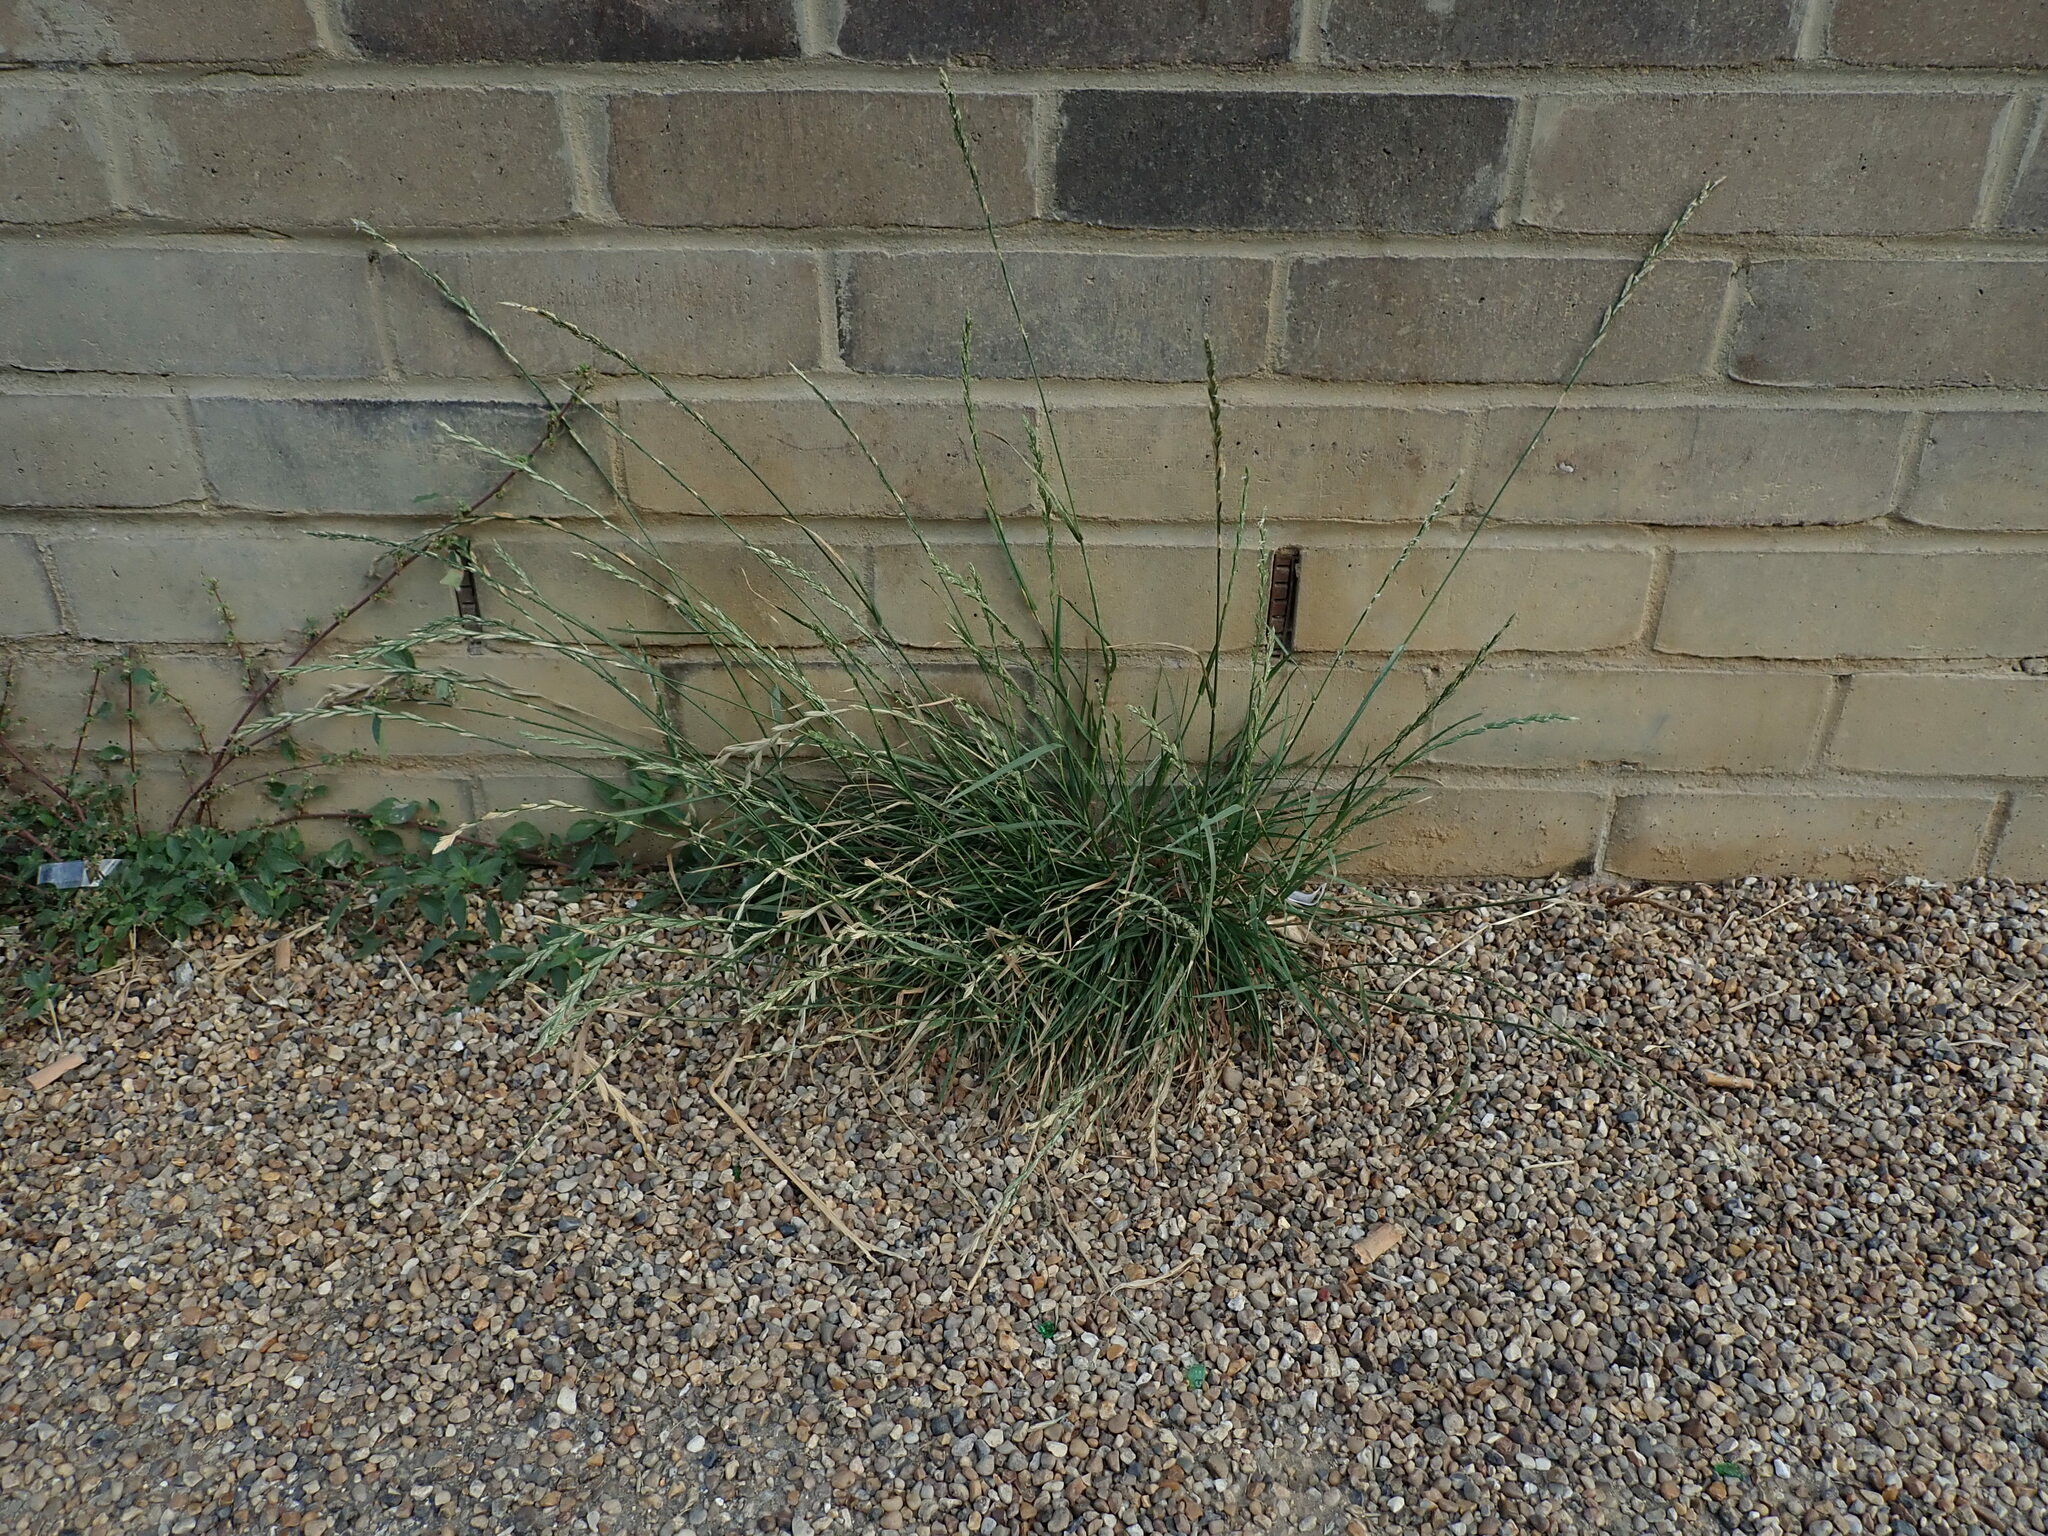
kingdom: Plantae
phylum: Tracheophyta
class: Liliopsida
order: Poales
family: Poaceae
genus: Lolium
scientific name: Lolium perenne
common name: Perennial ryegrass
